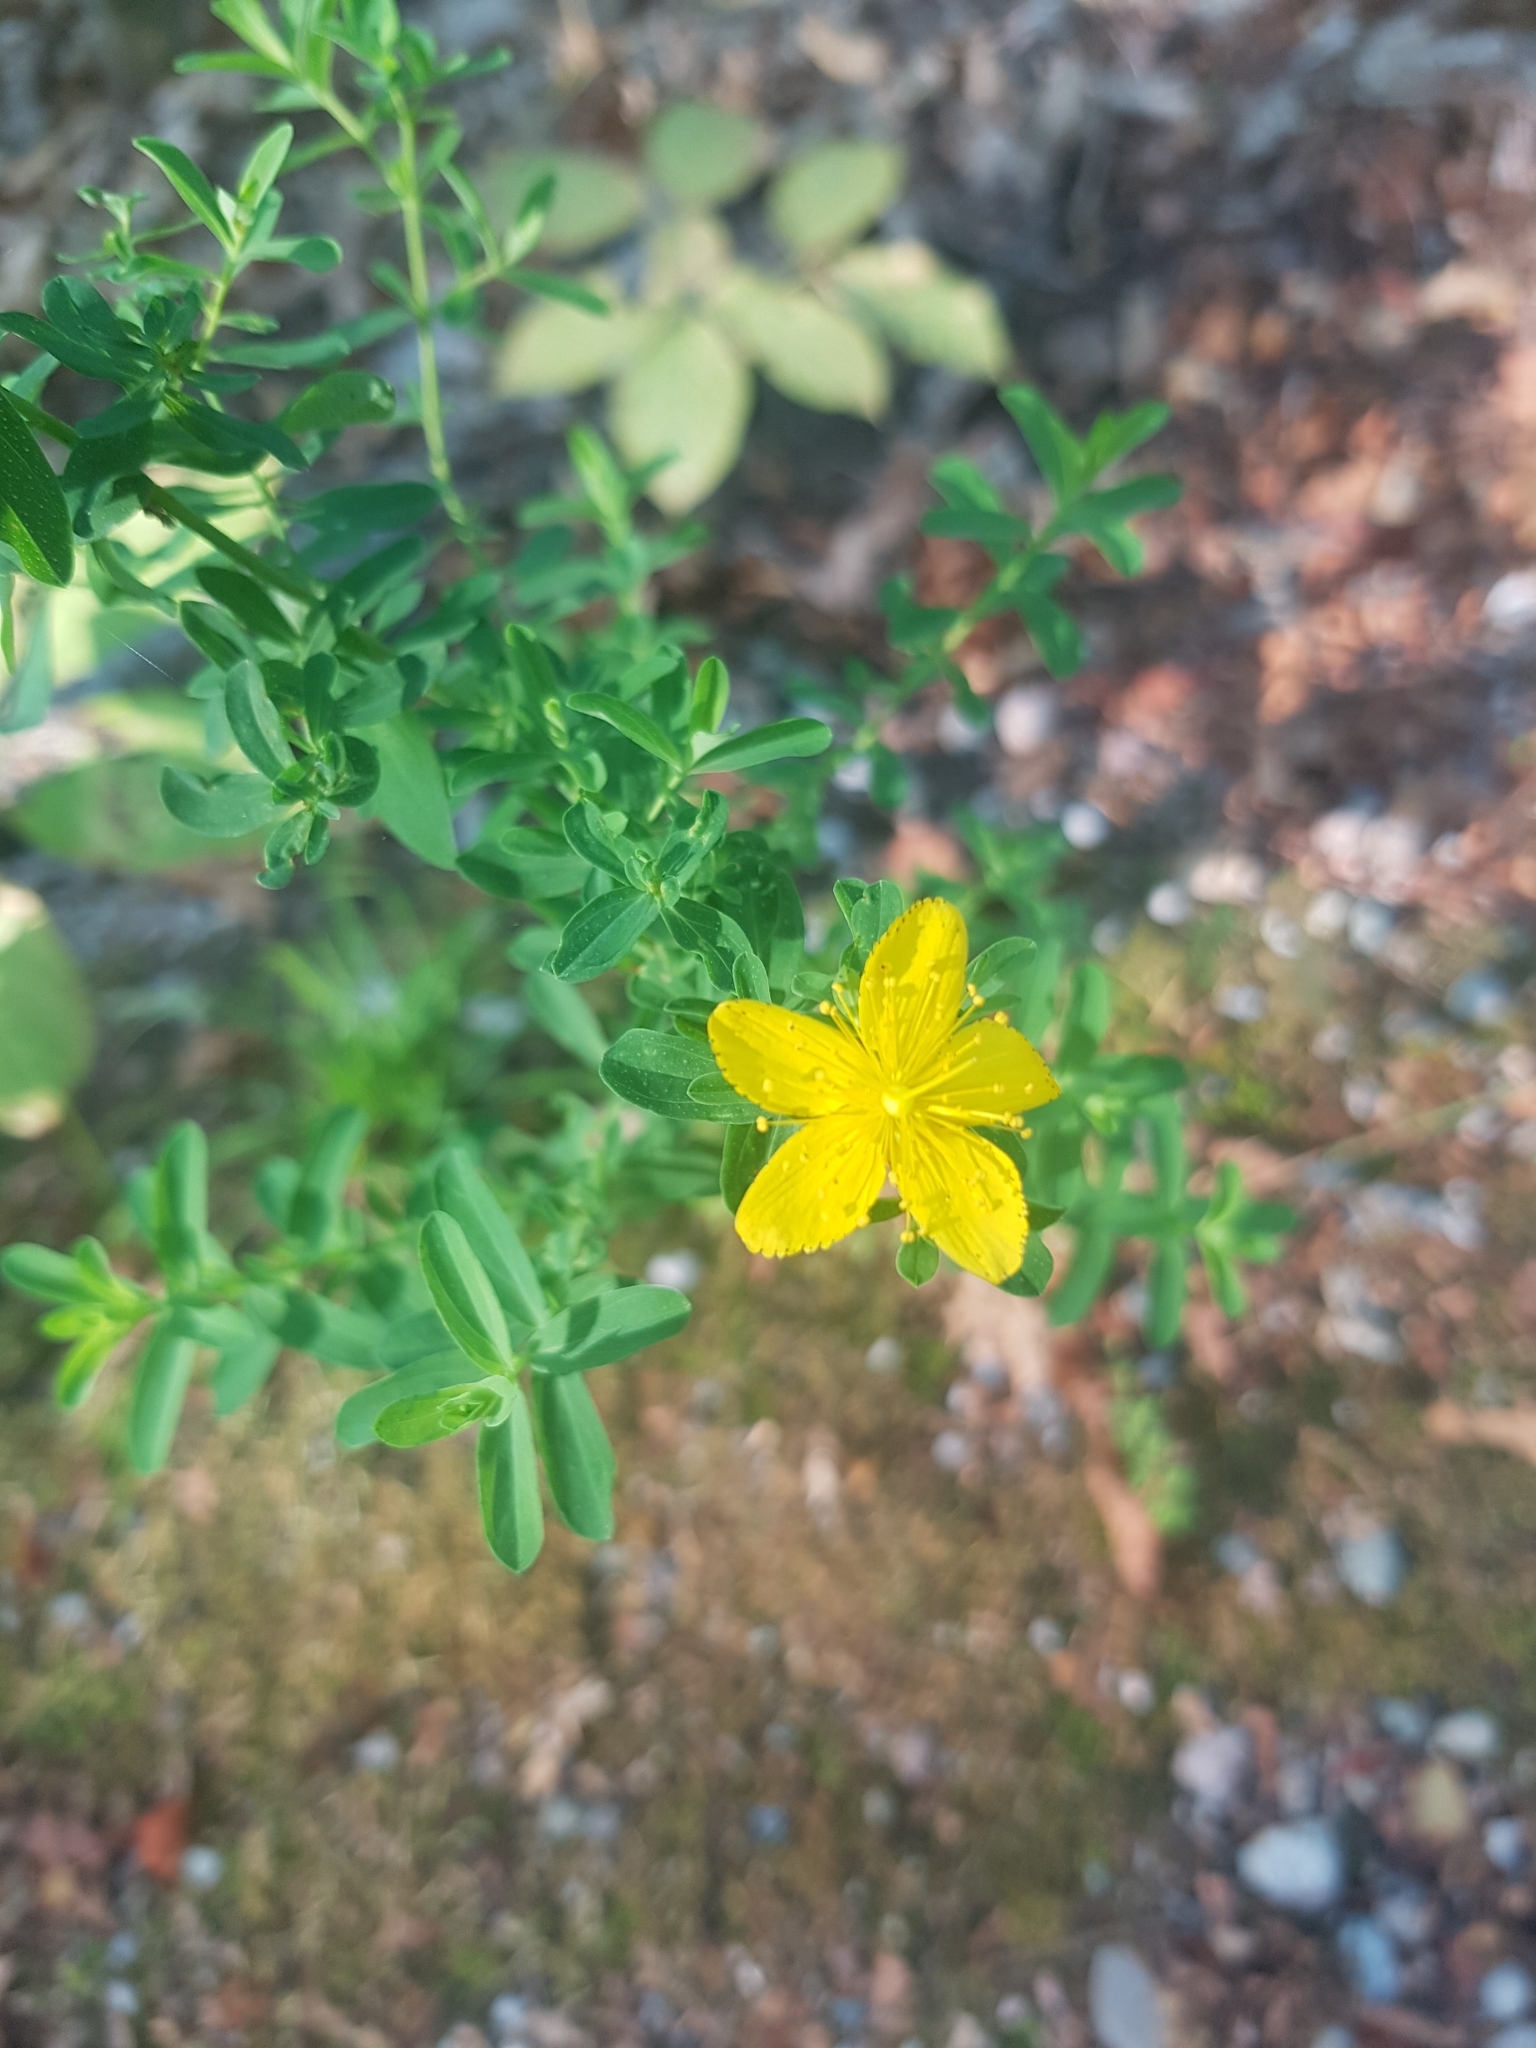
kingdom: Plantae
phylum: Tracheophyta
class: Magnoliopsida
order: Malpighiales
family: Hypericaceae
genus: Hypericum
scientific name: Hypericum perforatum
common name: Common st. johnswort
